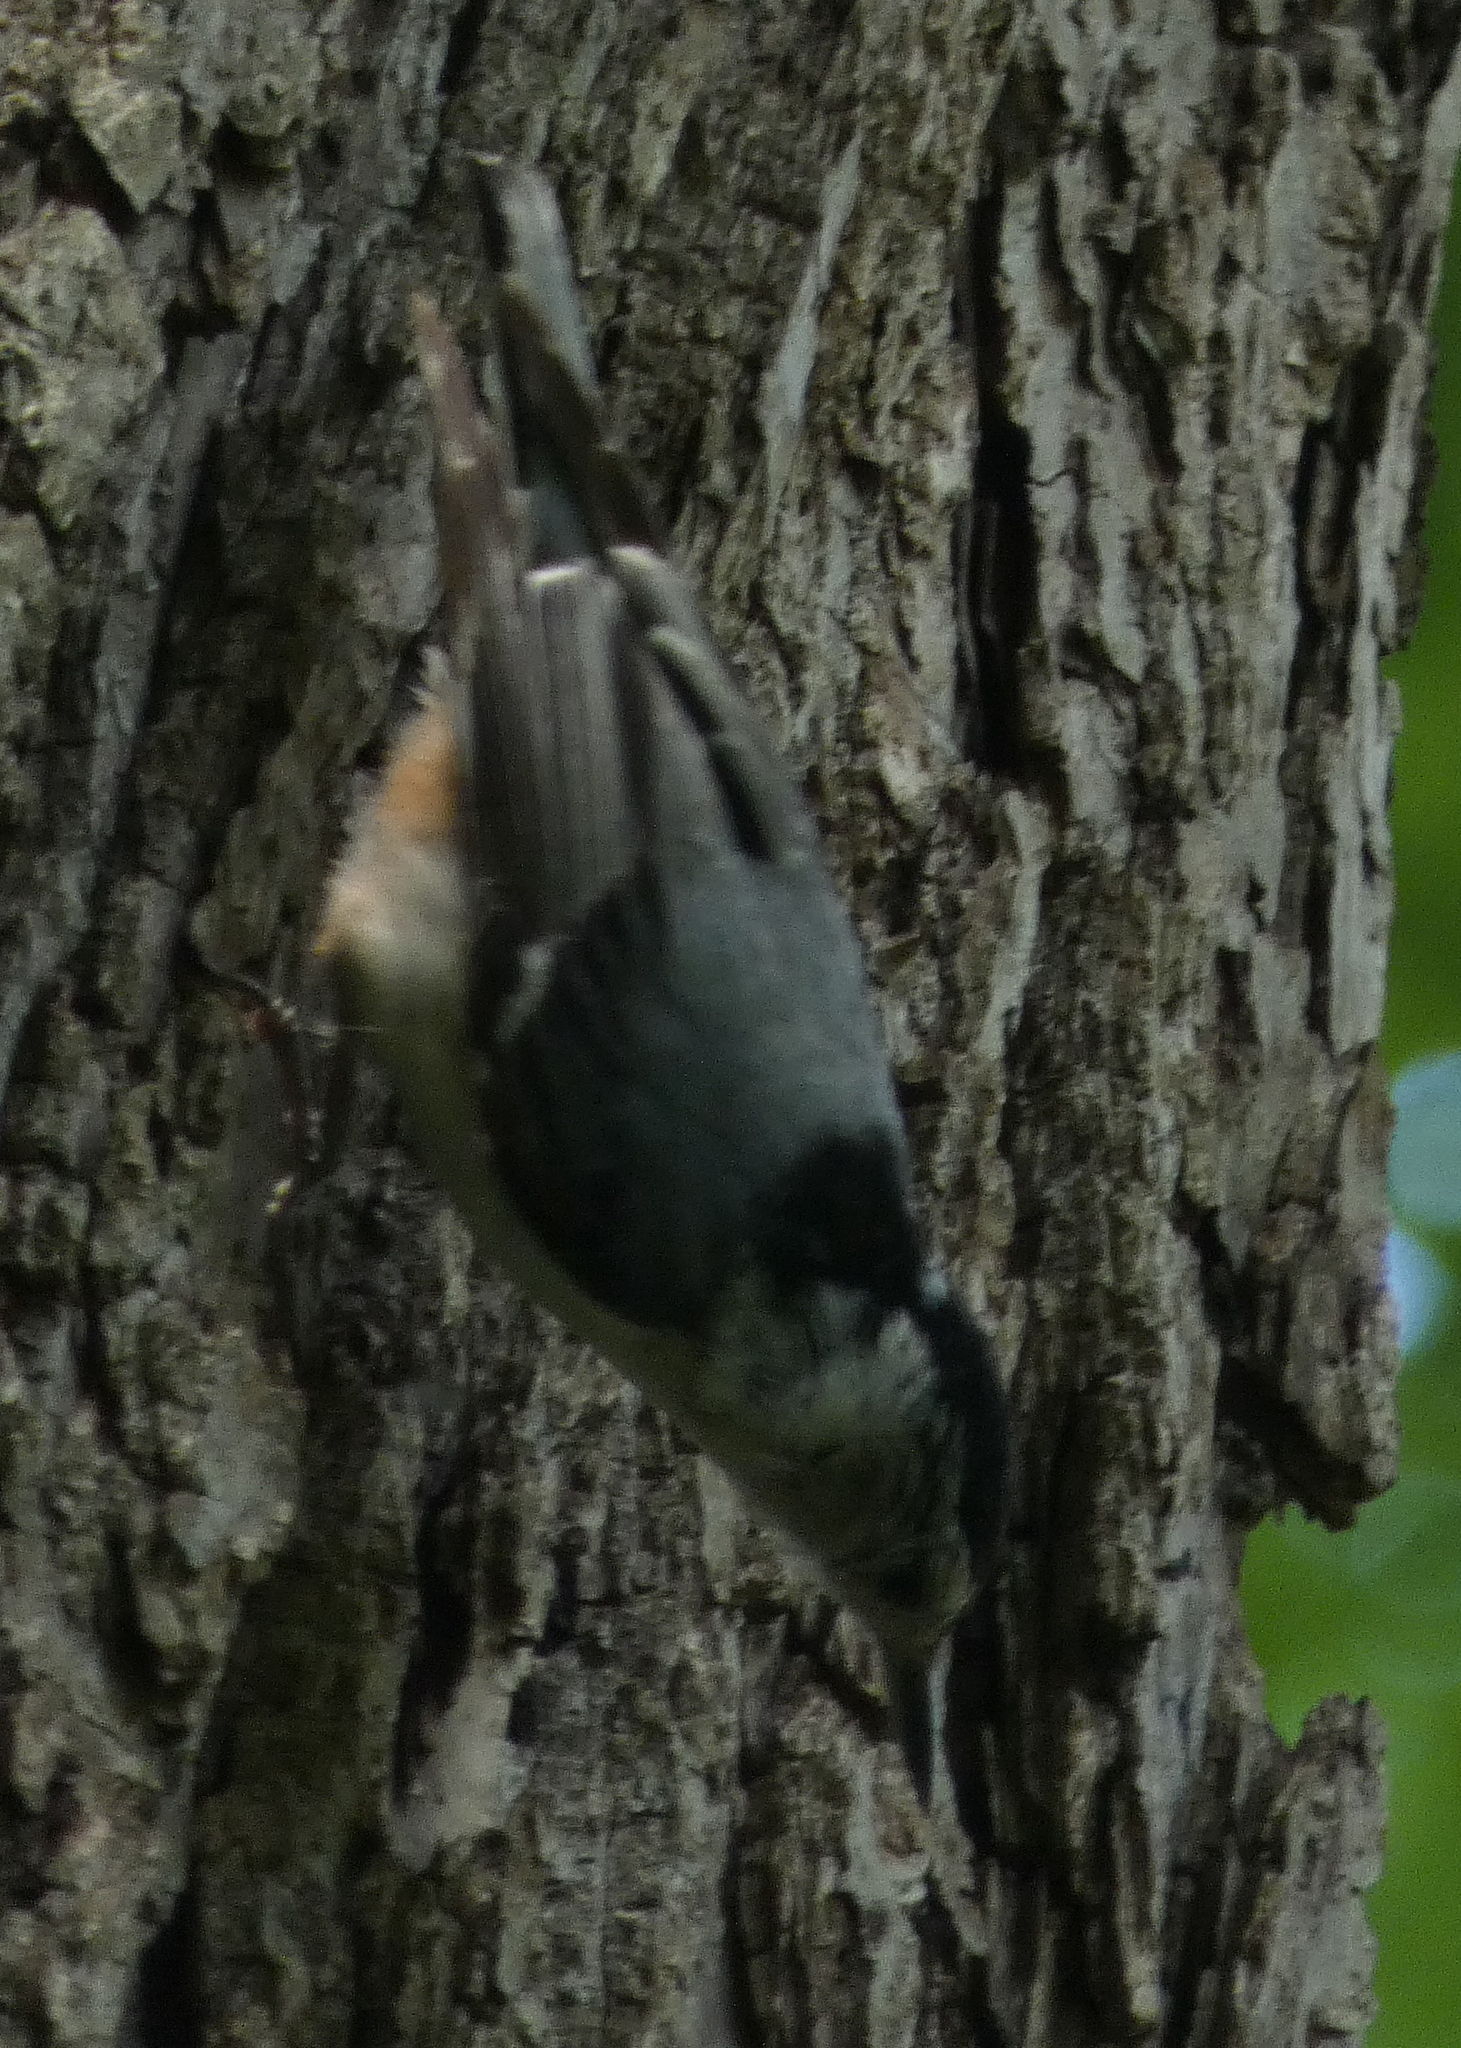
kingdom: Animalia
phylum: Chordata
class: Aves
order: Passeriformes
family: Sittidae
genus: Sitta
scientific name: Sitta carolinensis
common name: White-breasted nuthatch
